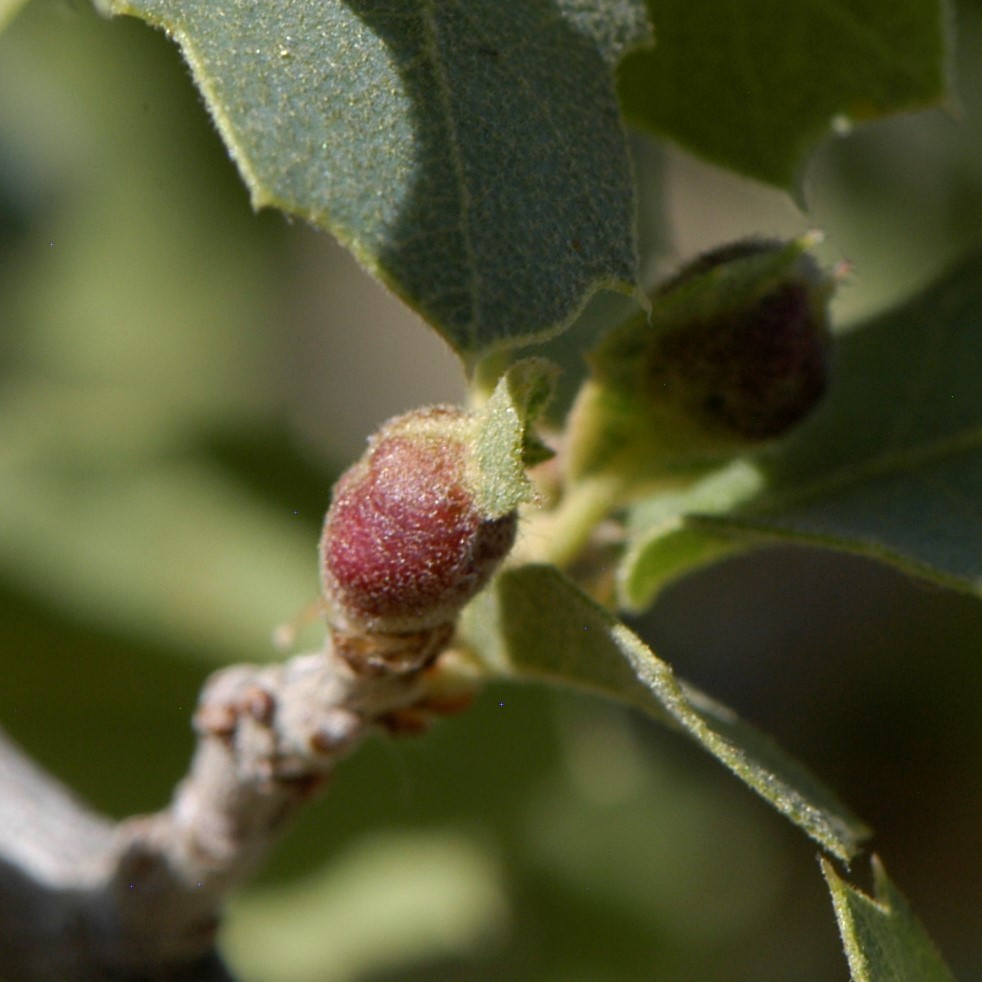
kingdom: Animalia
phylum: Arthropoda
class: Insecta
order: Hymenoptera
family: Cynipidae
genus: Andricus
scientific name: Andricus
